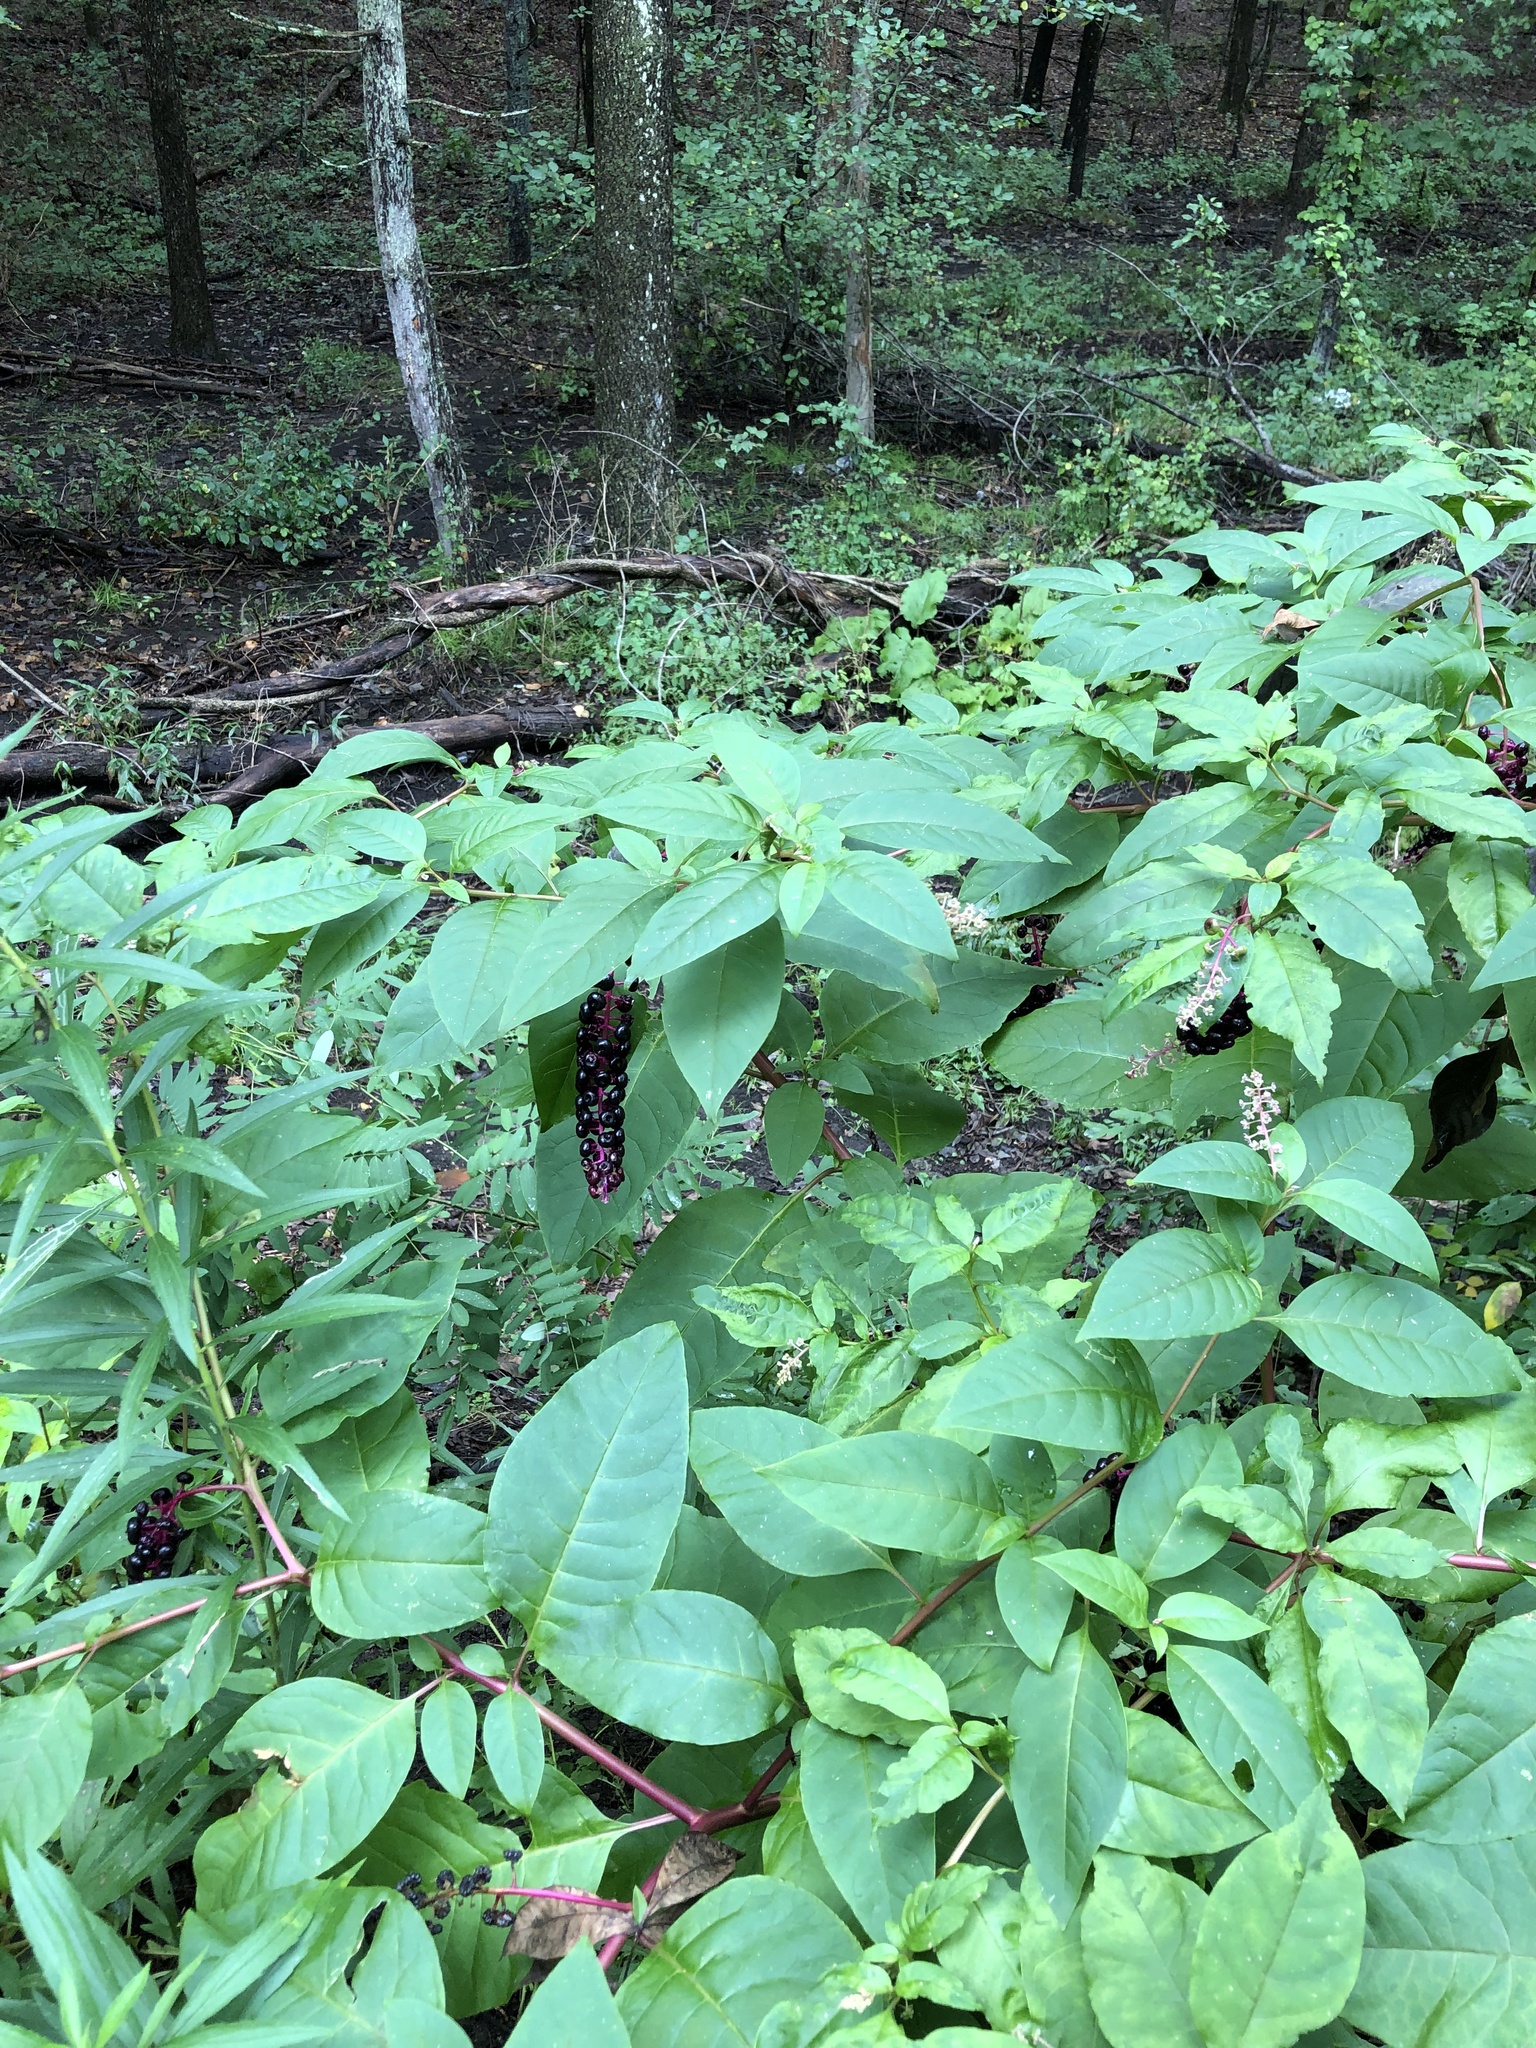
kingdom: Plantae
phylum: Tracheophyta
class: Magnoliopsida
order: Caryophyllales
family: Phytolaccaceae
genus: Phytolacca
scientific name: Phytolacca americana
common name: American pokeweed
